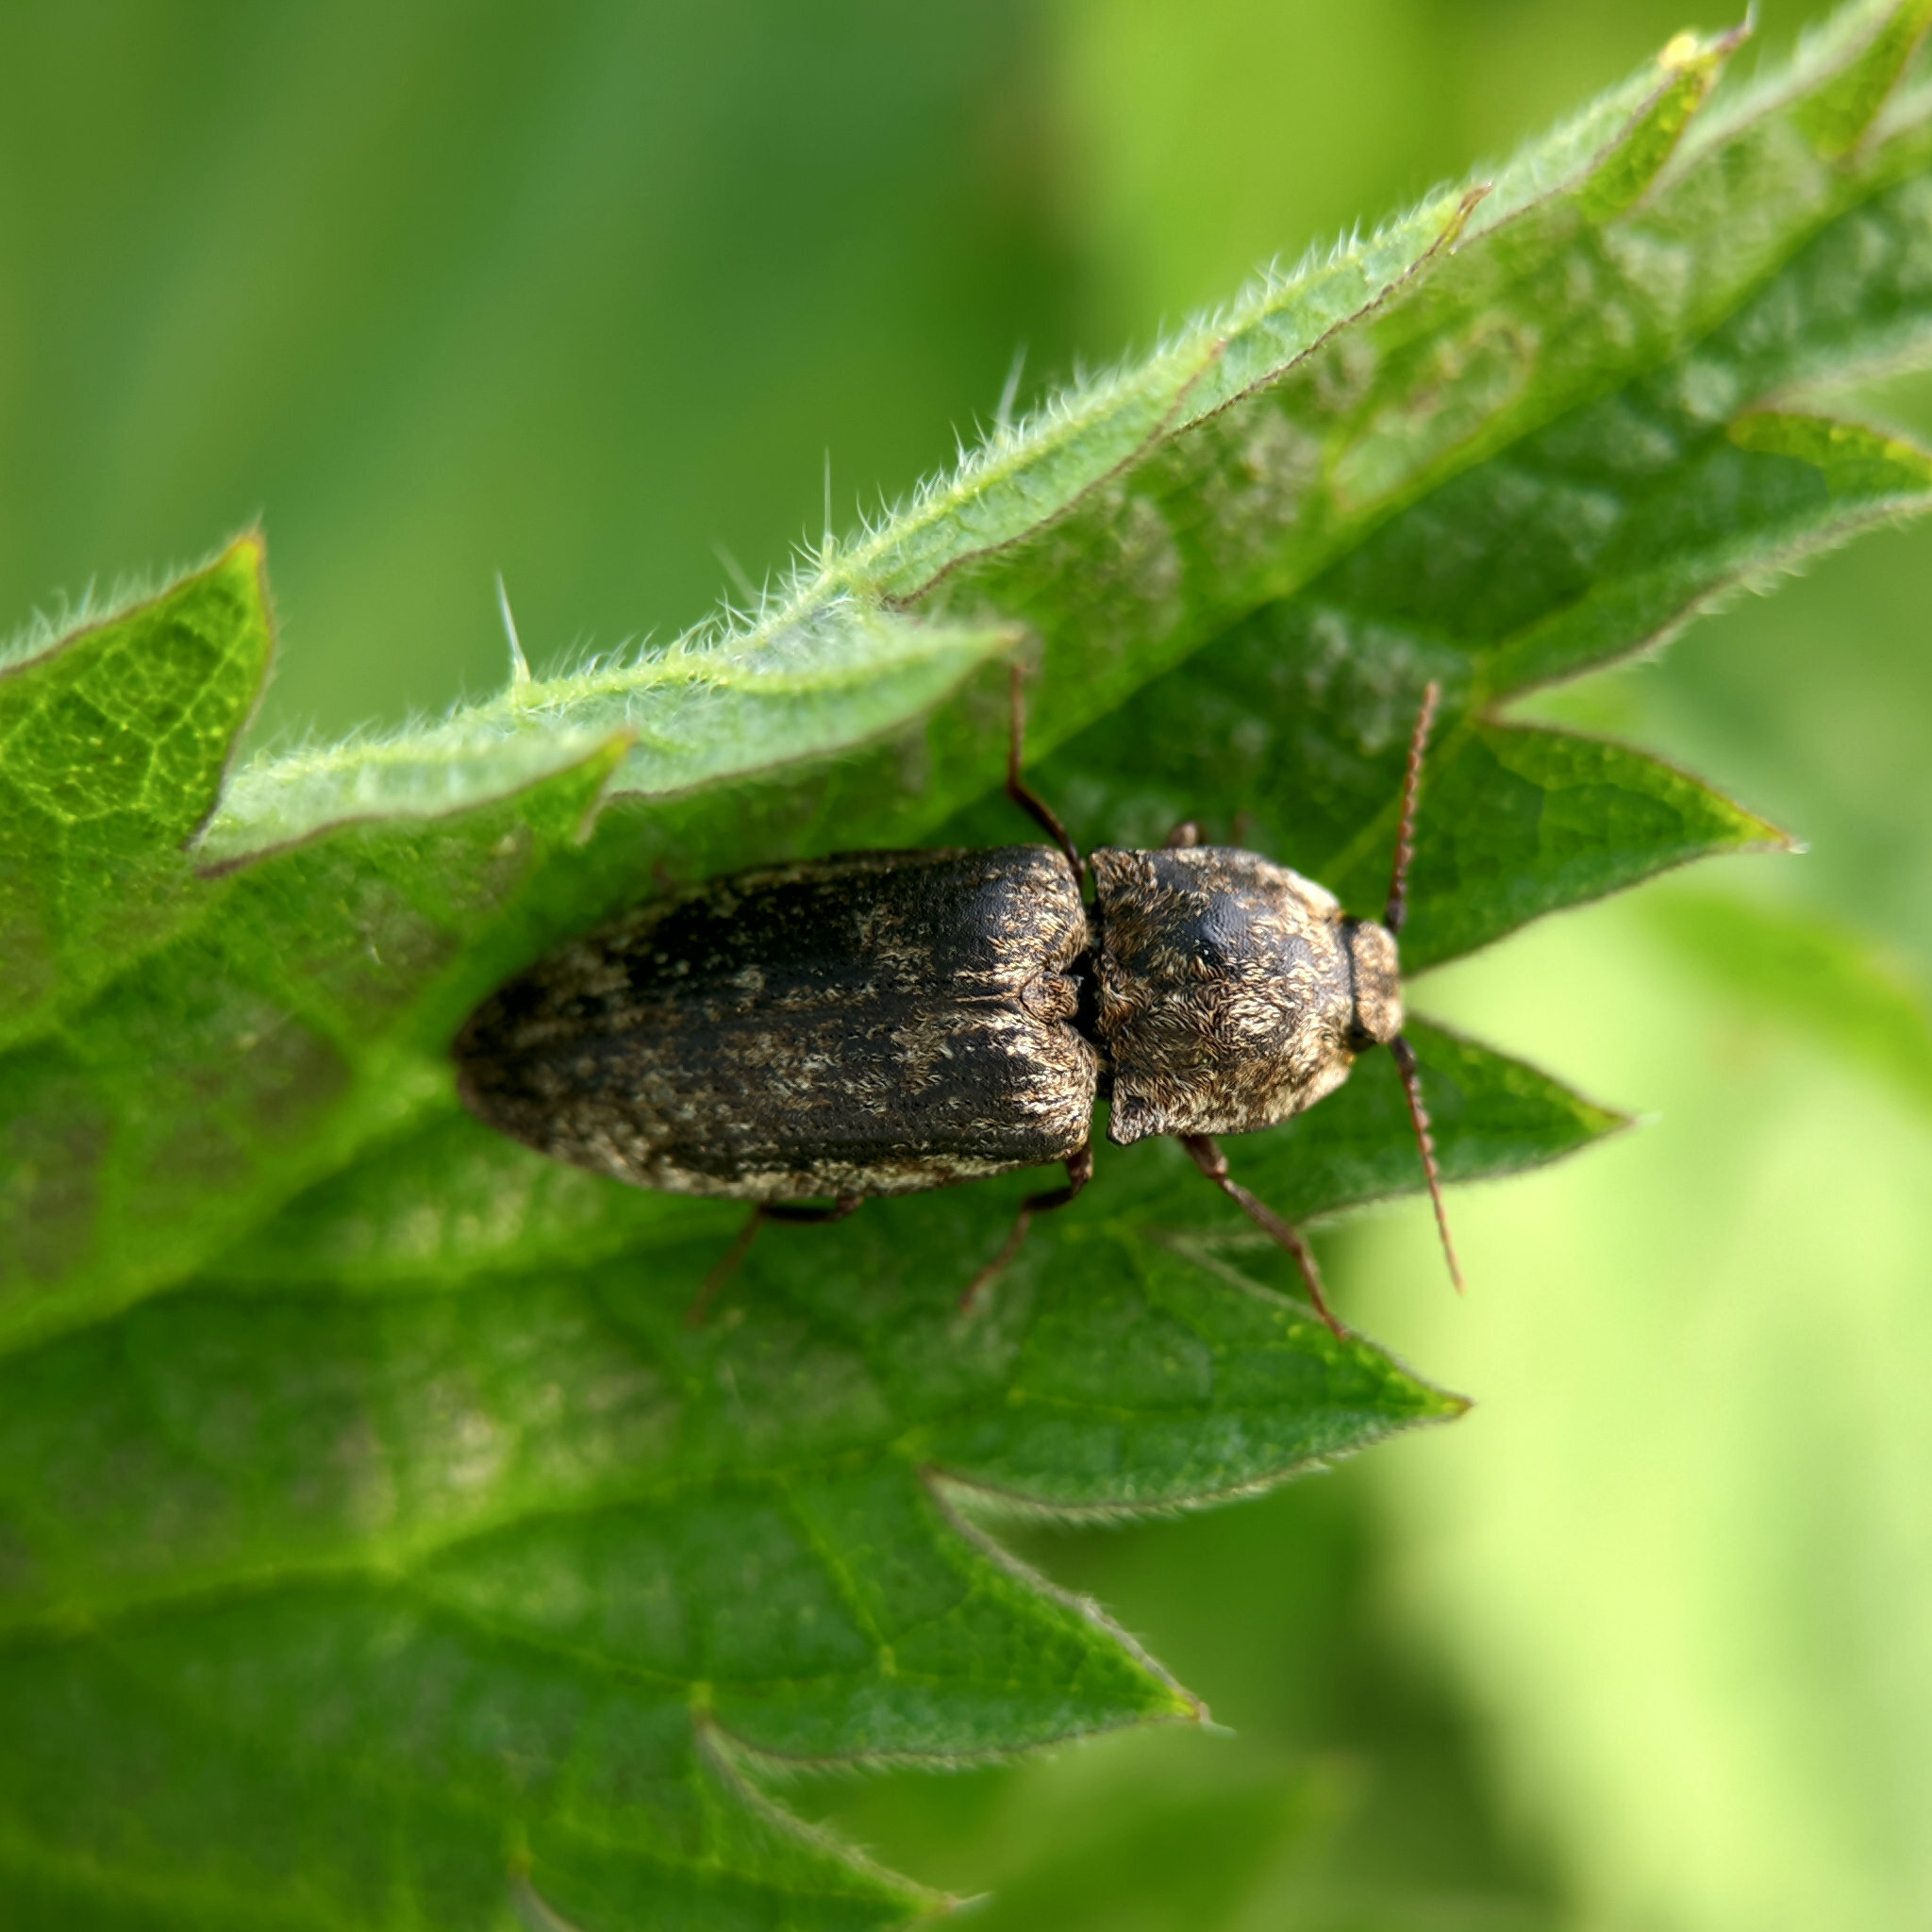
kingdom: Animalia
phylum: Arthropoda
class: Insecta
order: Coleoptera
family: Elateridae
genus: Agrypnus
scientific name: Agrypnus murinus
